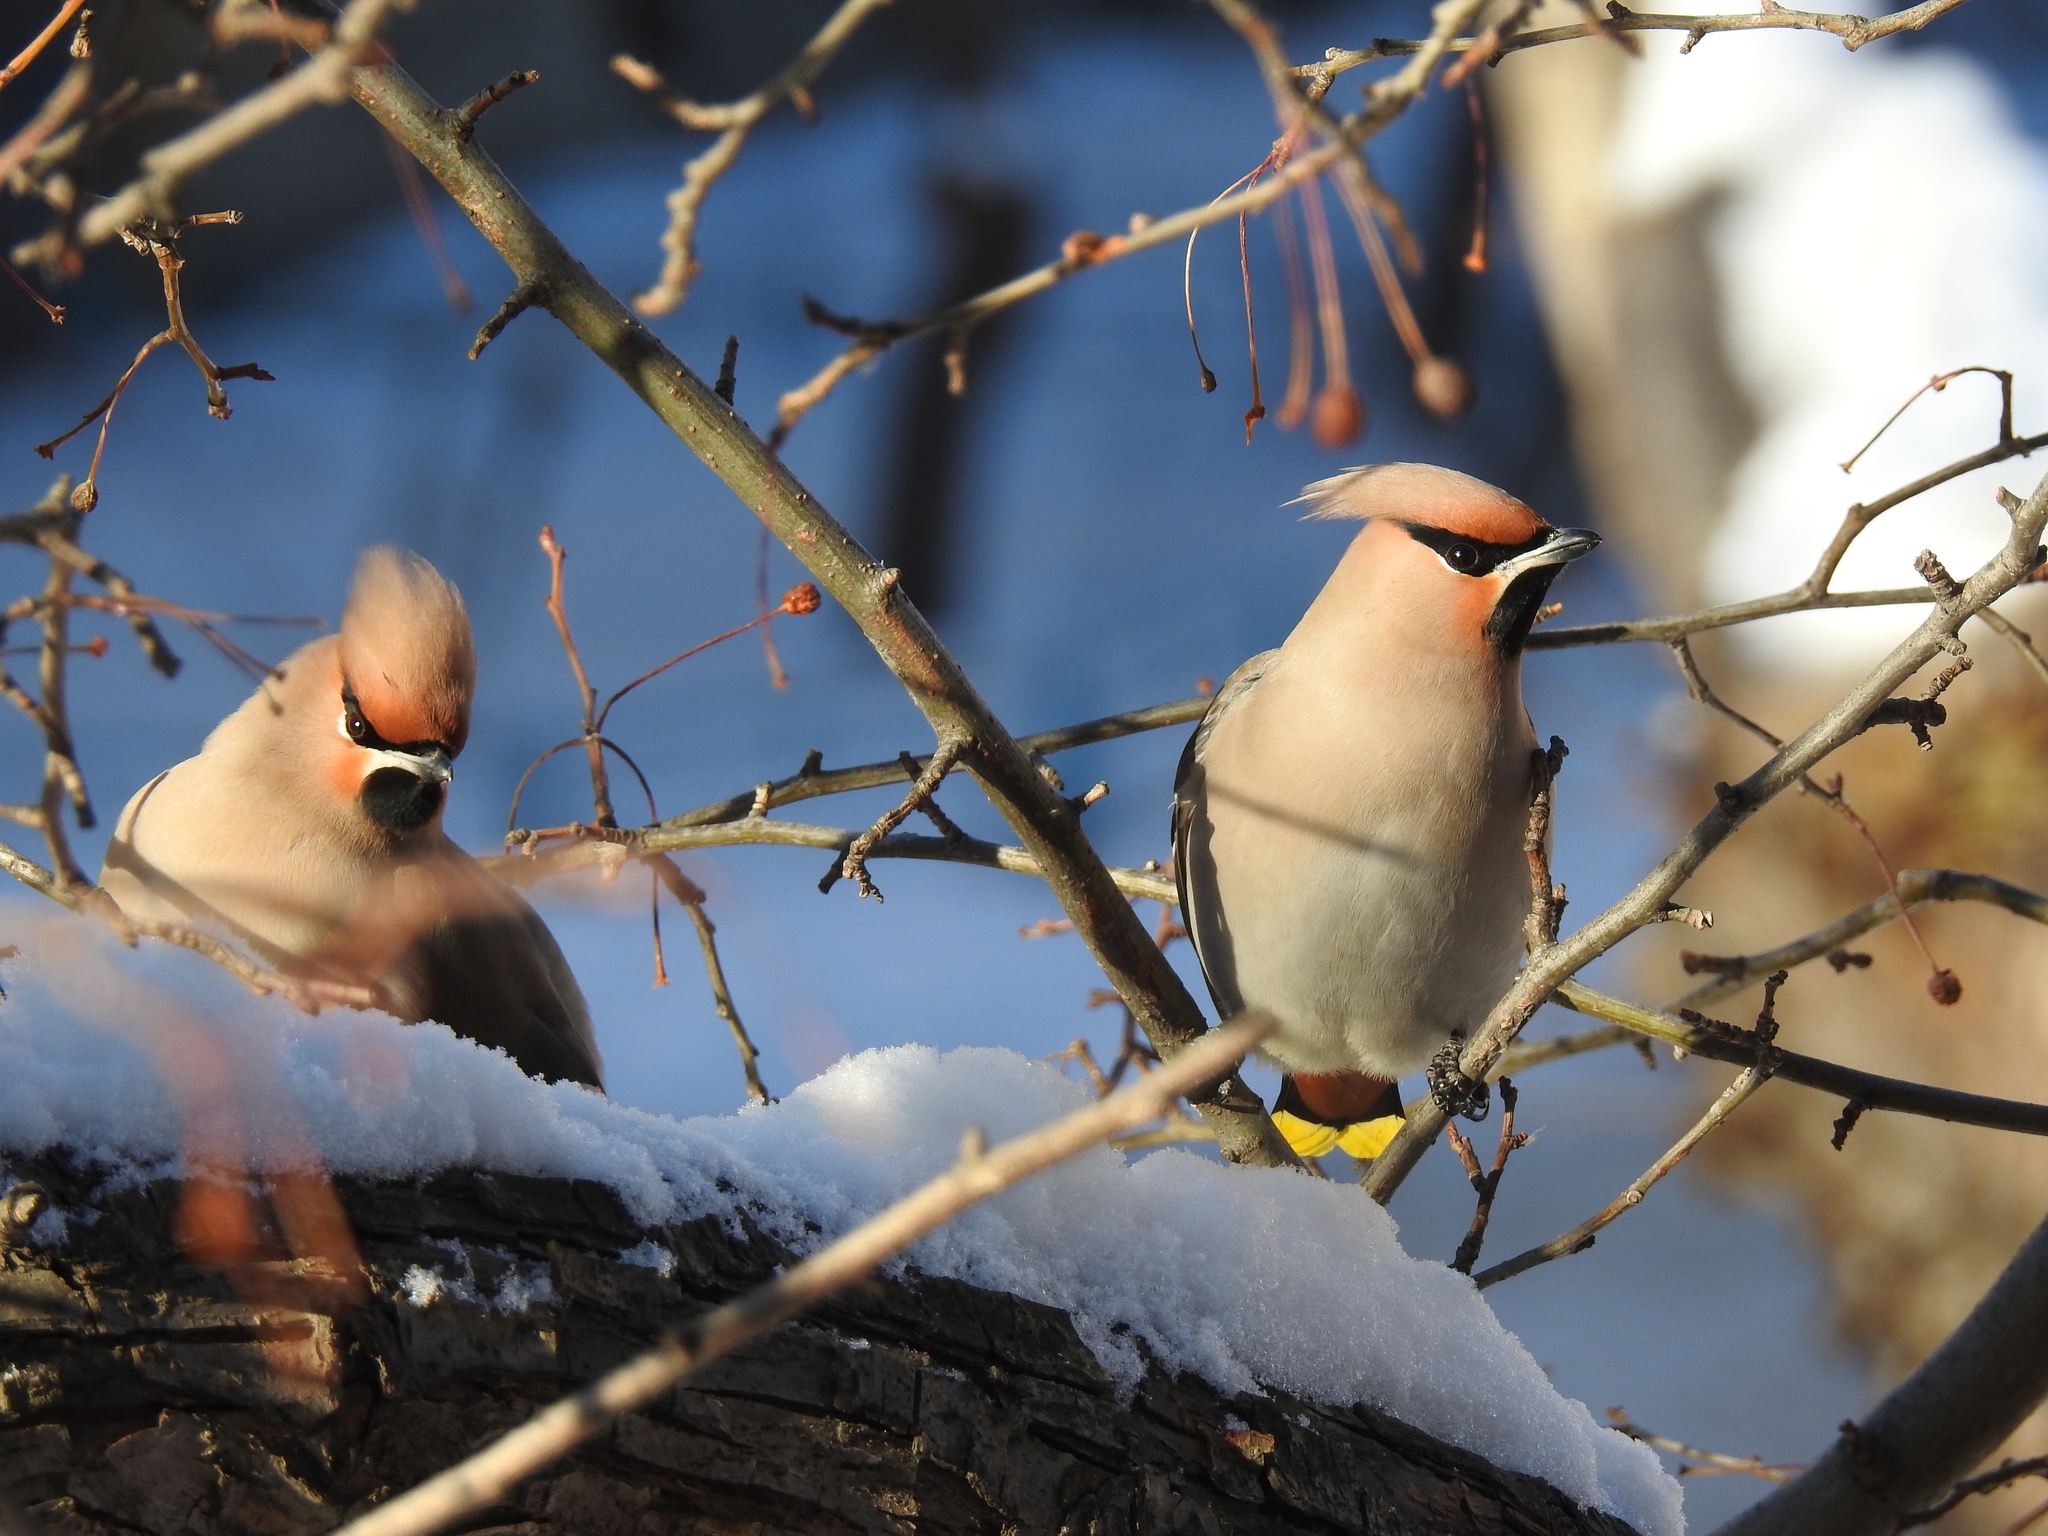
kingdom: Animalia
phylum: Chordata
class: Aves
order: Passeriformes
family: Bombycillidae
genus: Bombycilla
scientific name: Bombycilla garrulus
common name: Bohemian waxwing
